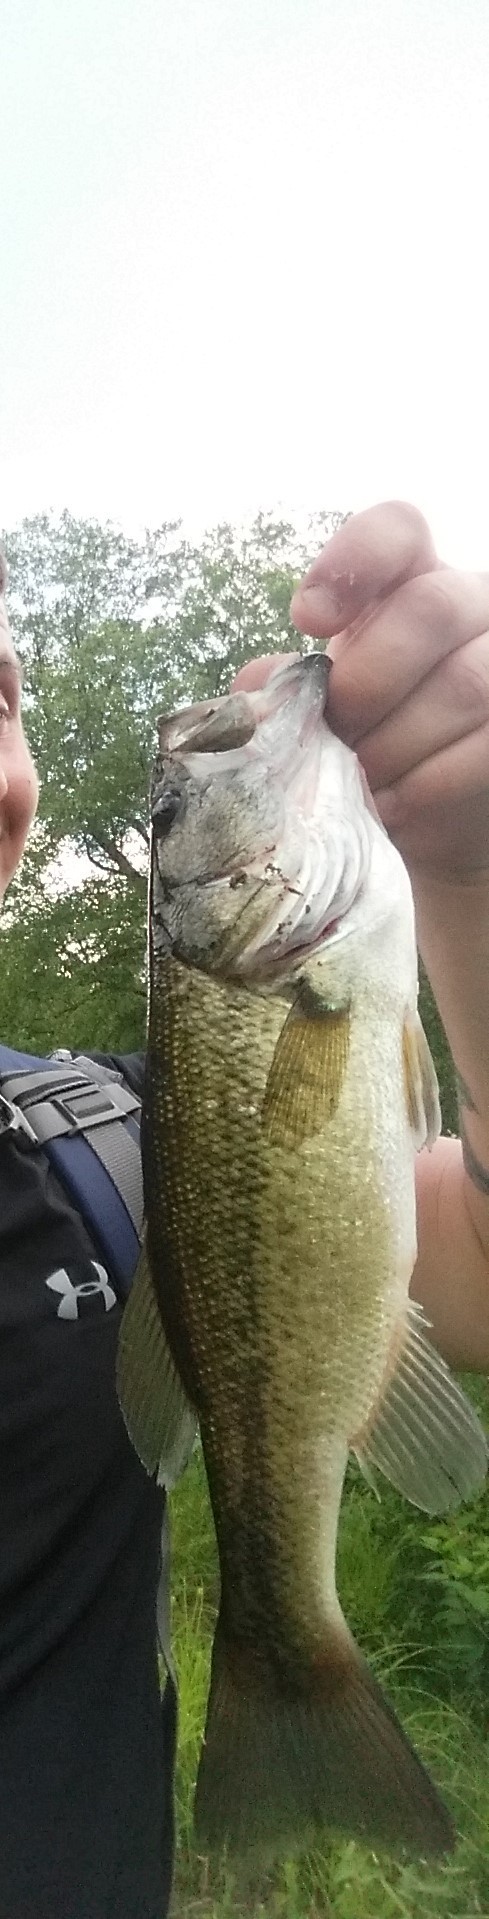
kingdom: Animalia
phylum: Chordata
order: Perciformes
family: Centrarchidae
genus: Micropterus
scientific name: Micropterus
